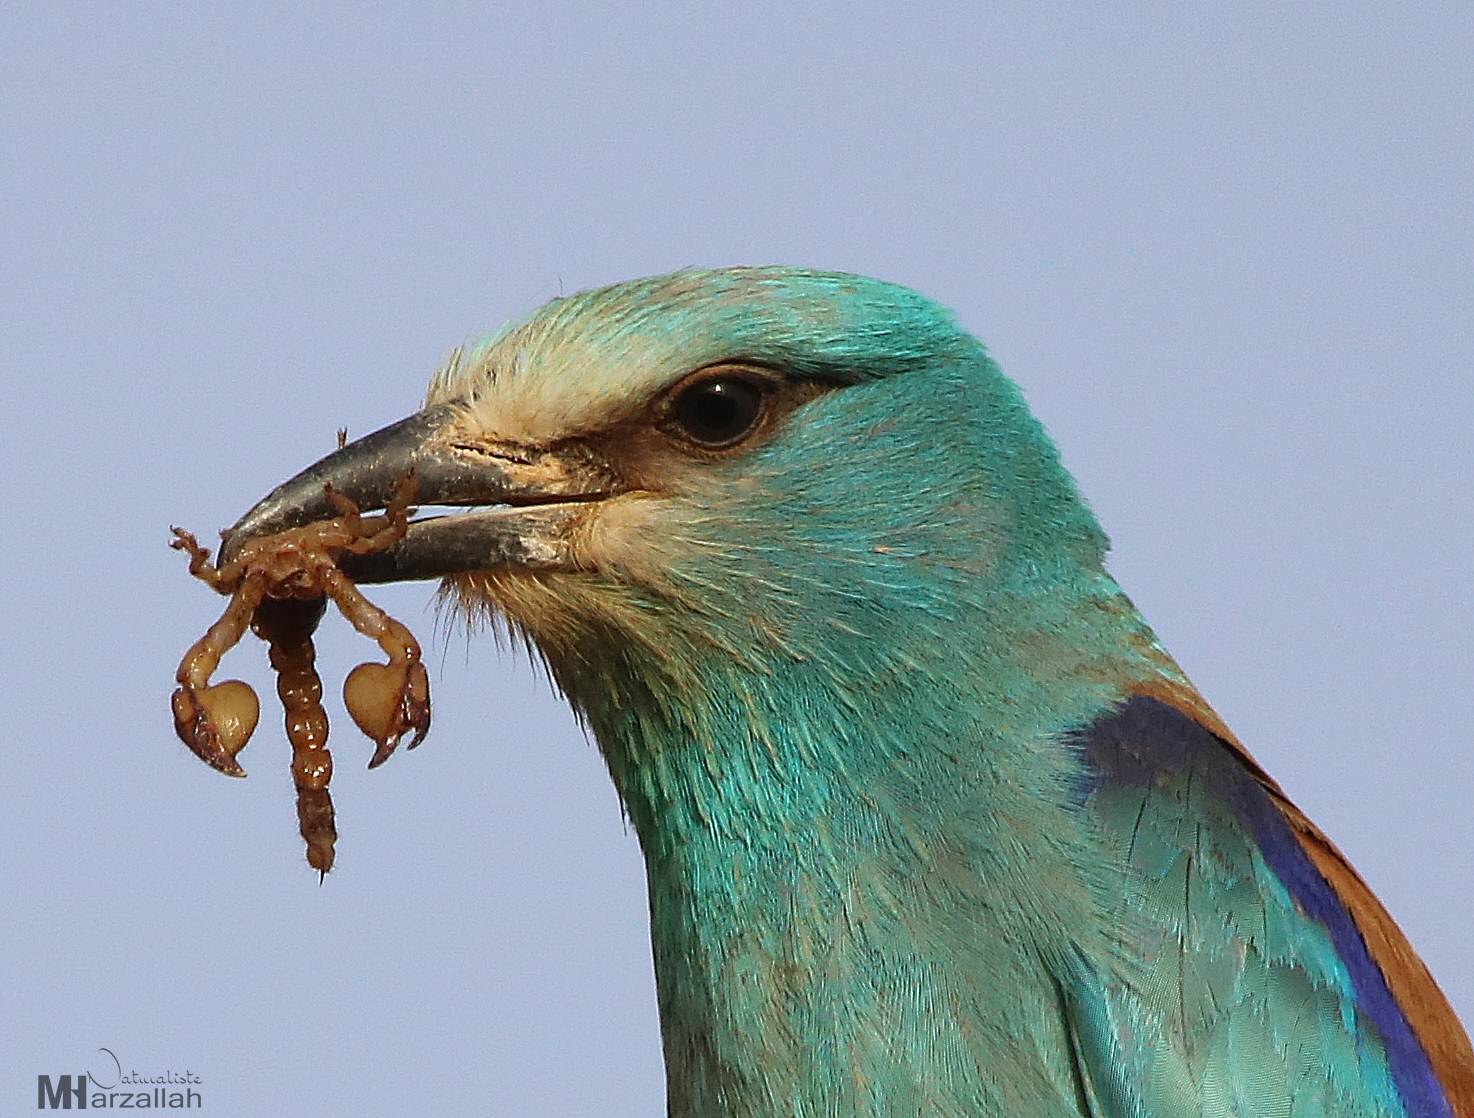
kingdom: Animalia
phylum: Chordata
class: Aves
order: Coraciiformes
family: Coraciidae
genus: Coracias
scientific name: Coracias garrulus
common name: European roller
